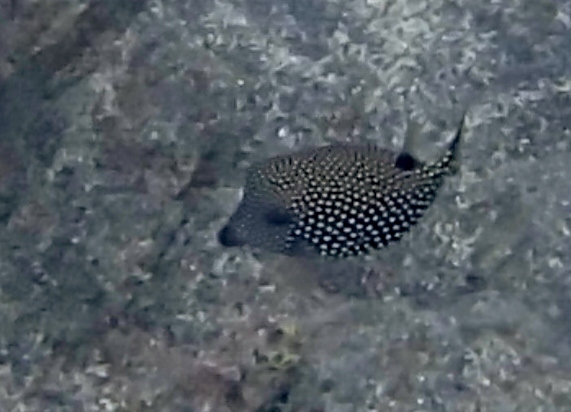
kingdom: Animalia
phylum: Chordata
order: Tetraodontiformes
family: Ostraciidae
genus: Ostracion
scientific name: Ostracion meleagris
